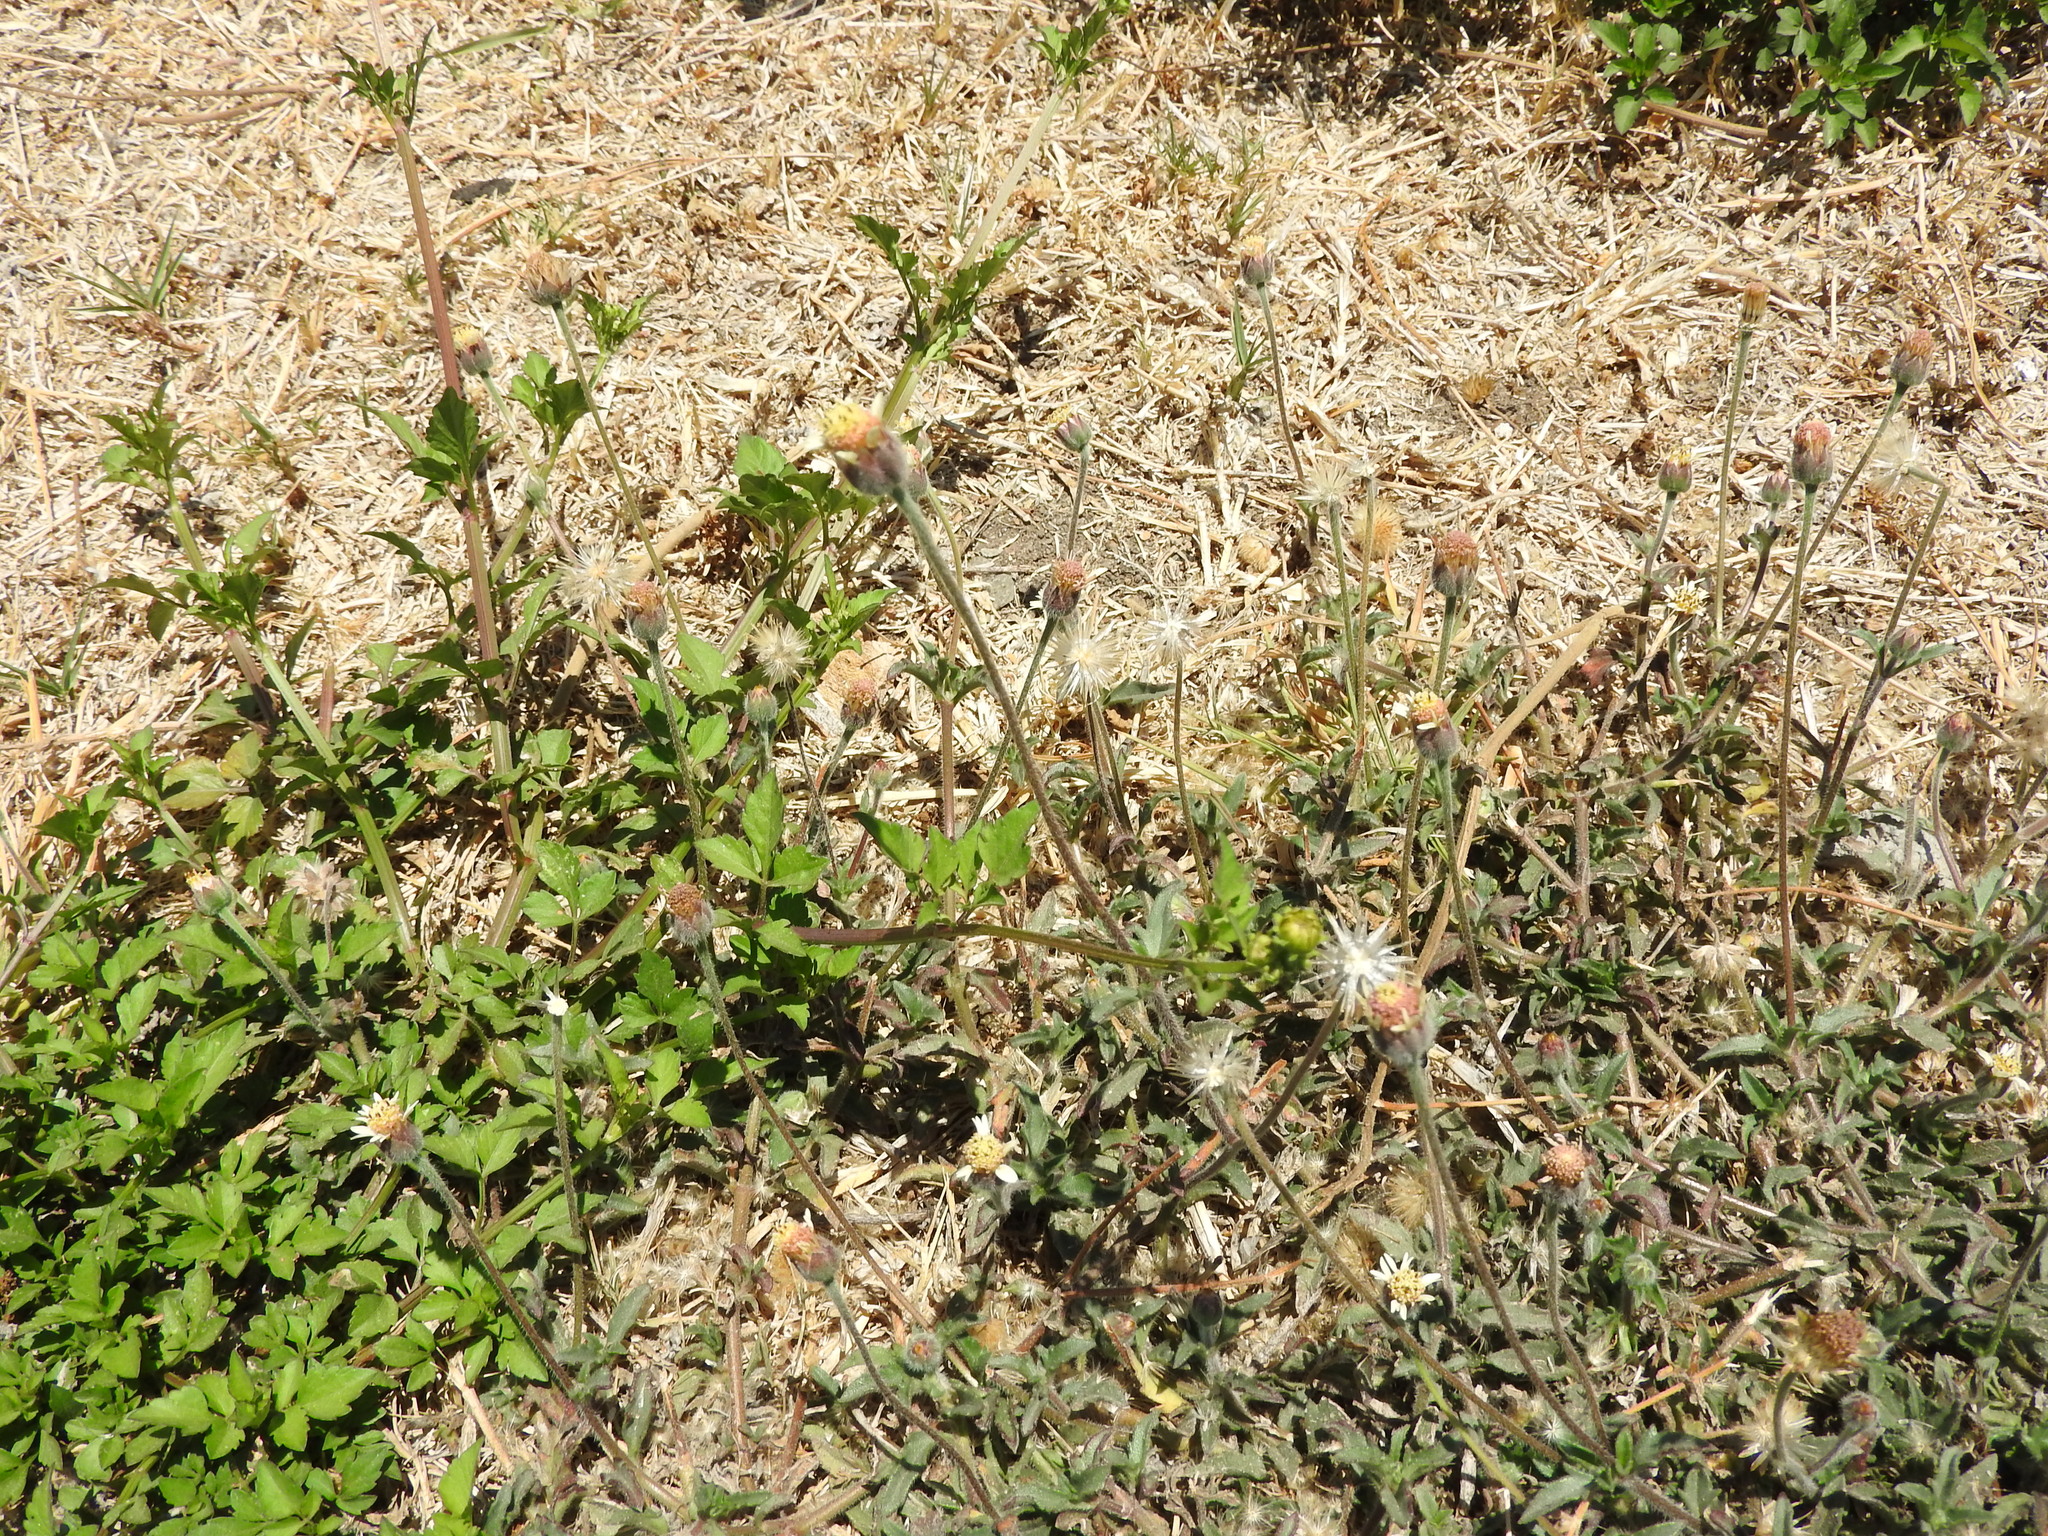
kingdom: Plantae
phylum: Tracheophyta
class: Magnoliopsida
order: Asterales
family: Asteraceae
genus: Tridax
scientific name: Tridax procumbens
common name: Coatbuttons
